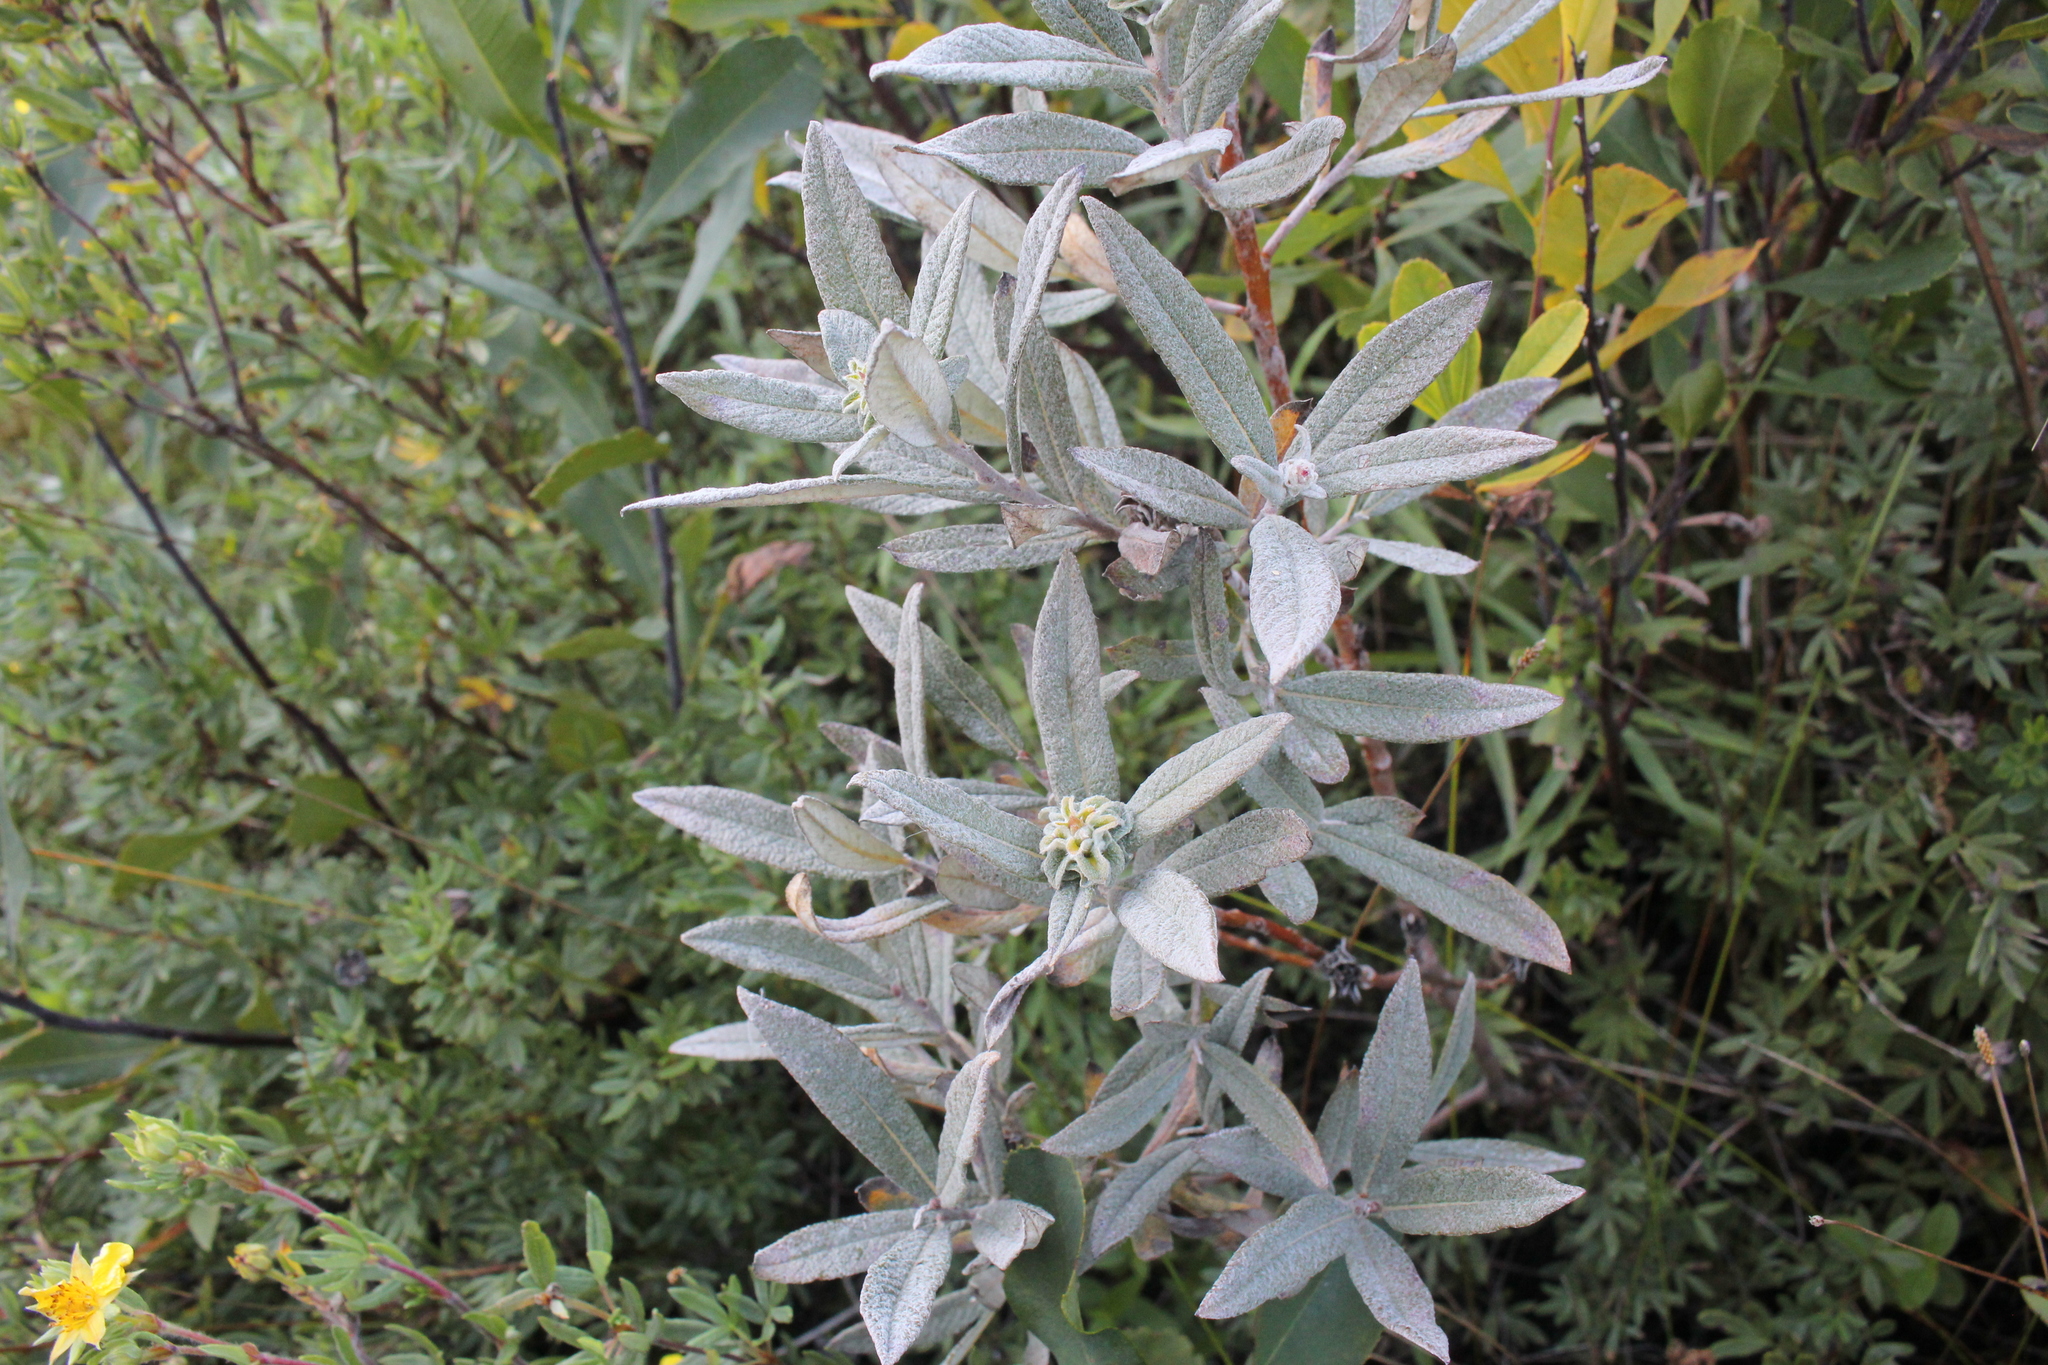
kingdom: Plantae
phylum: Tracheophyta
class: Magnoliopsida
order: Malpighiales
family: Salicaceae
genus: Salix
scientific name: Salix candida
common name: Hoary willow
